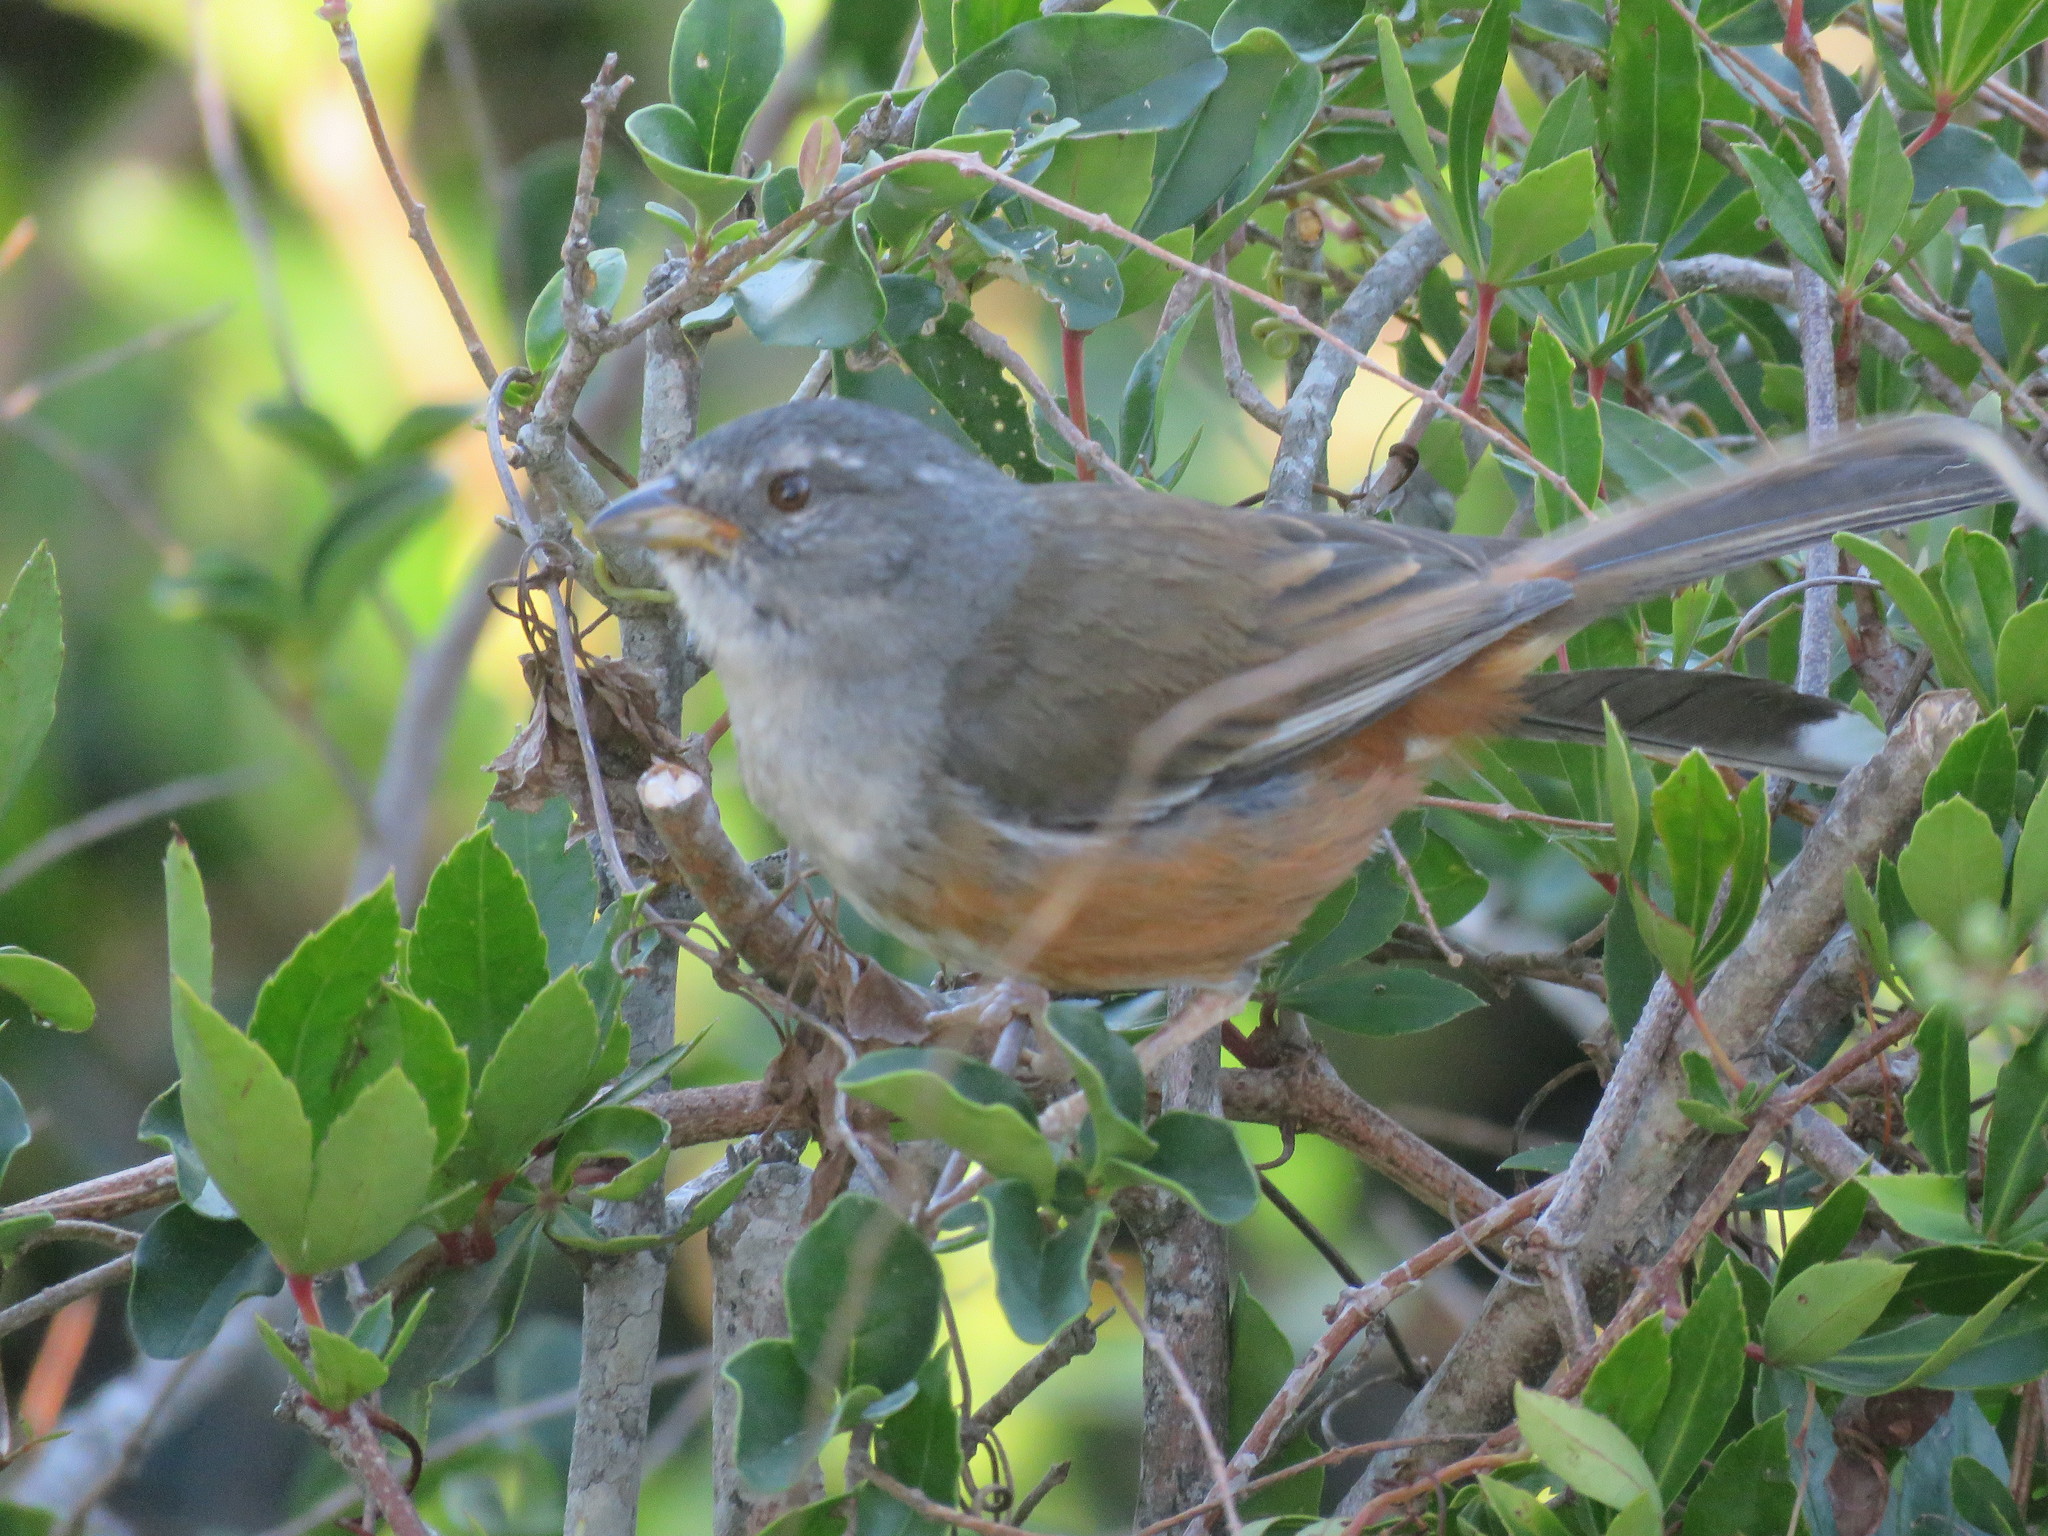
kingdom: Animalia
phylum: Chordata
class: Aves
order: Passeriformes
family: Thraupidae
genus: Microspingus
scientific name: Microspingus cabanisi
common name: Gray-throated warbling-finch
